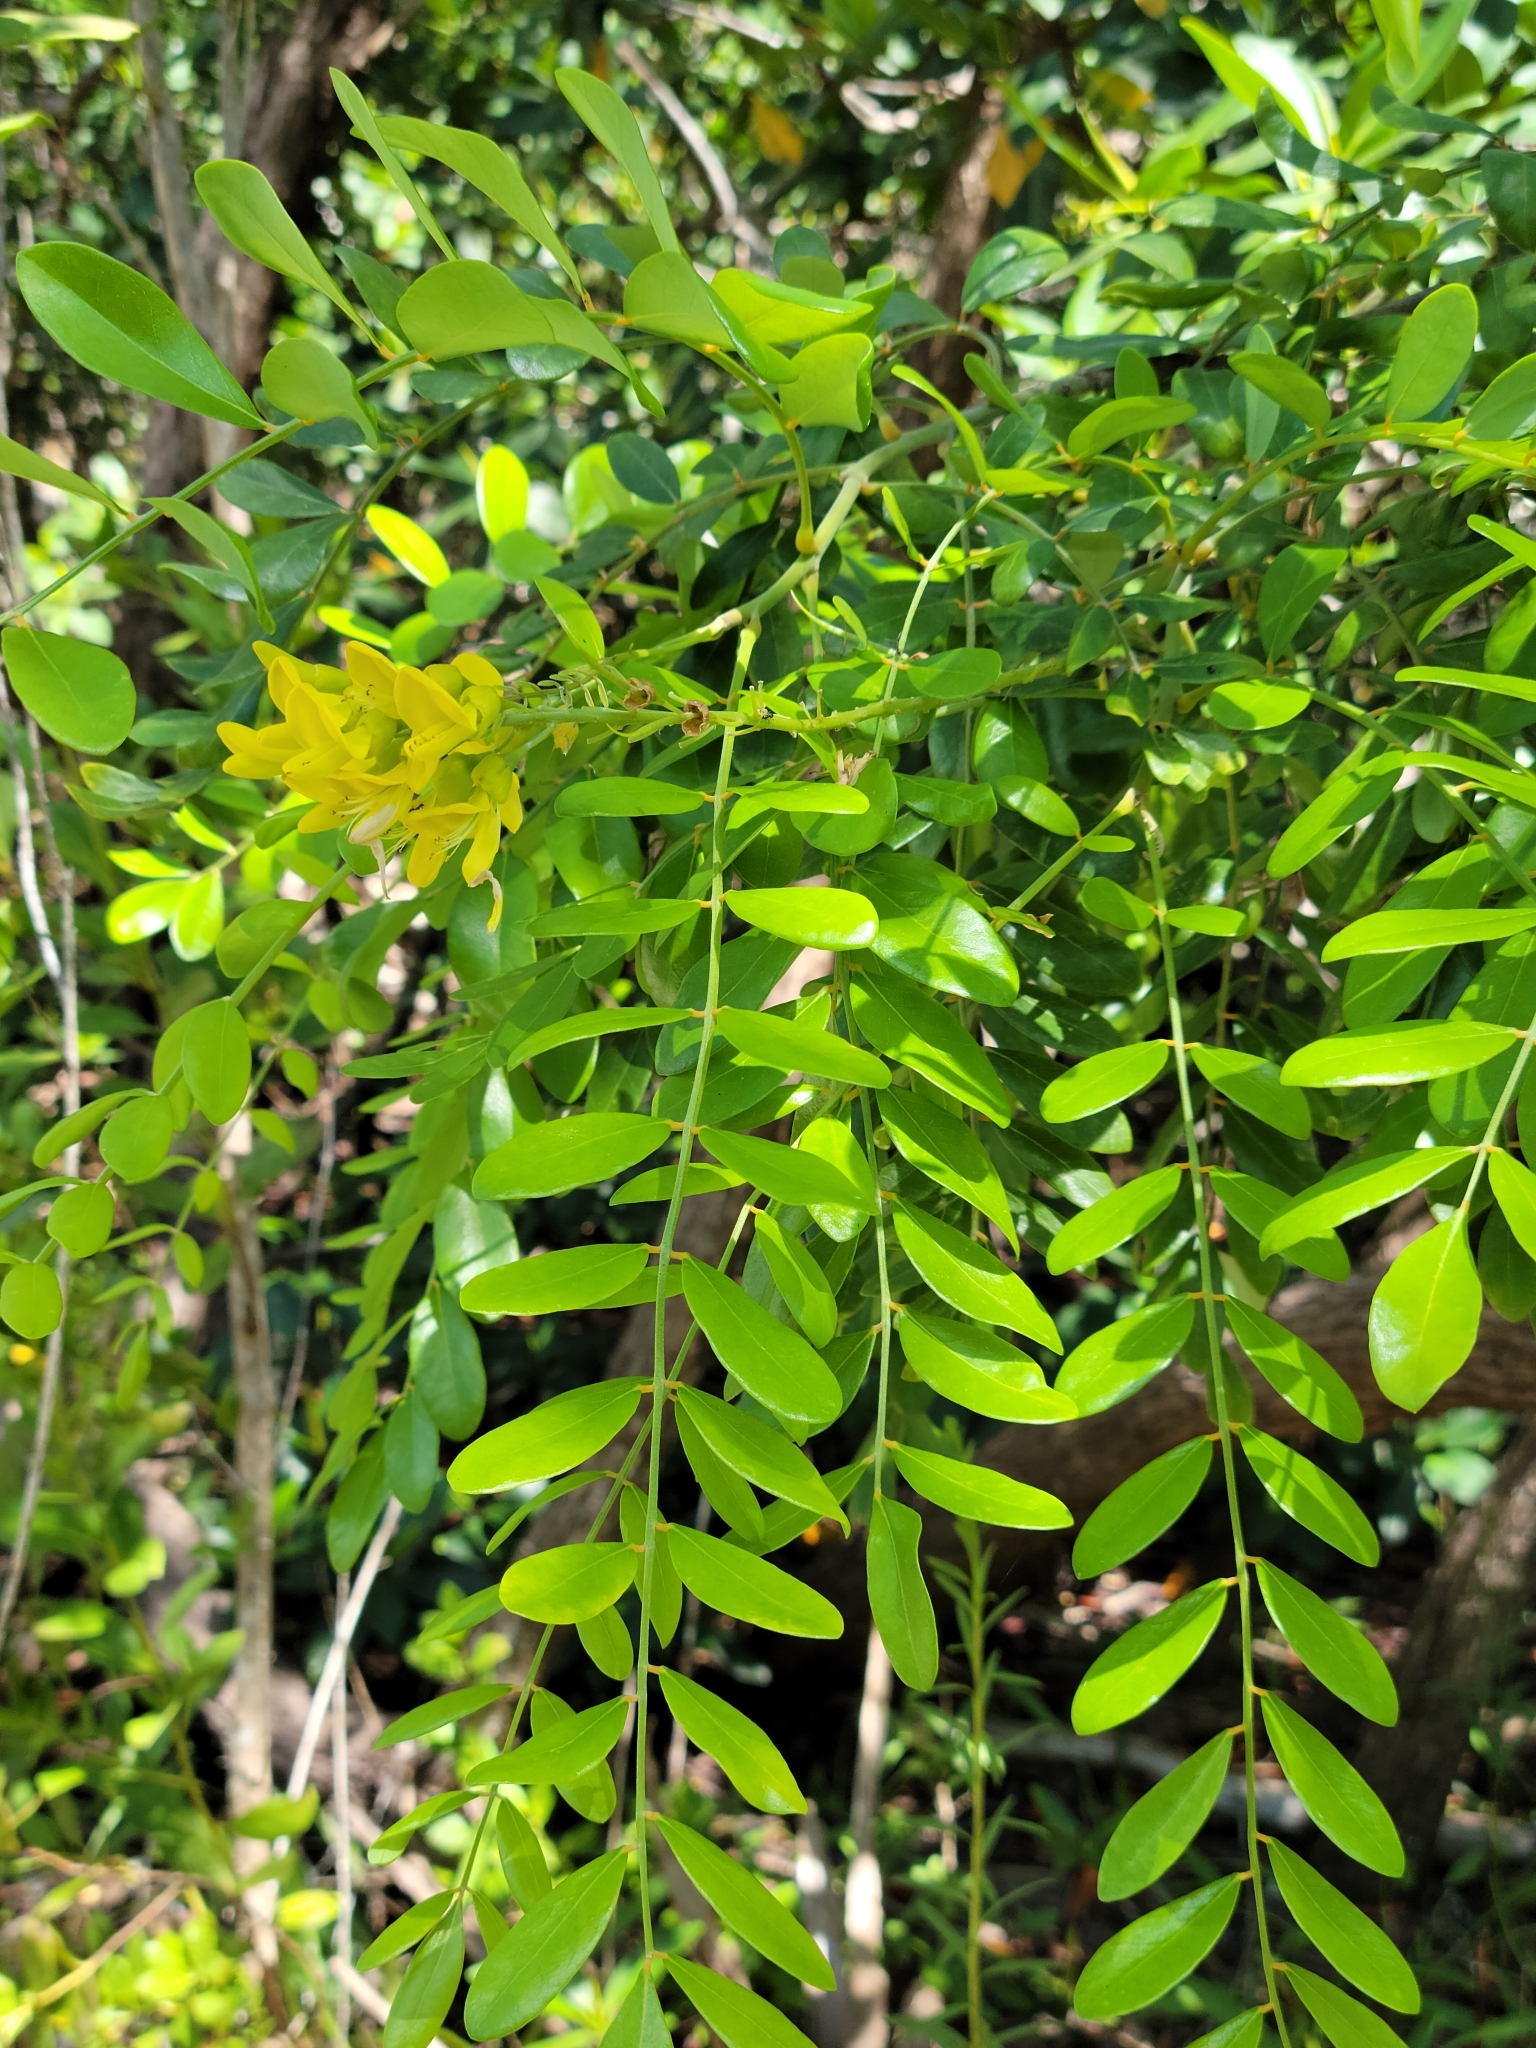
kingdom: Plantae
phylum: Tracheophyta
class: Magnoliopsida
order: Fabales
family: Fabaceae
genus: Sophora
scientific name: Sophora tomentosa
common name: Yellow necklacepod
